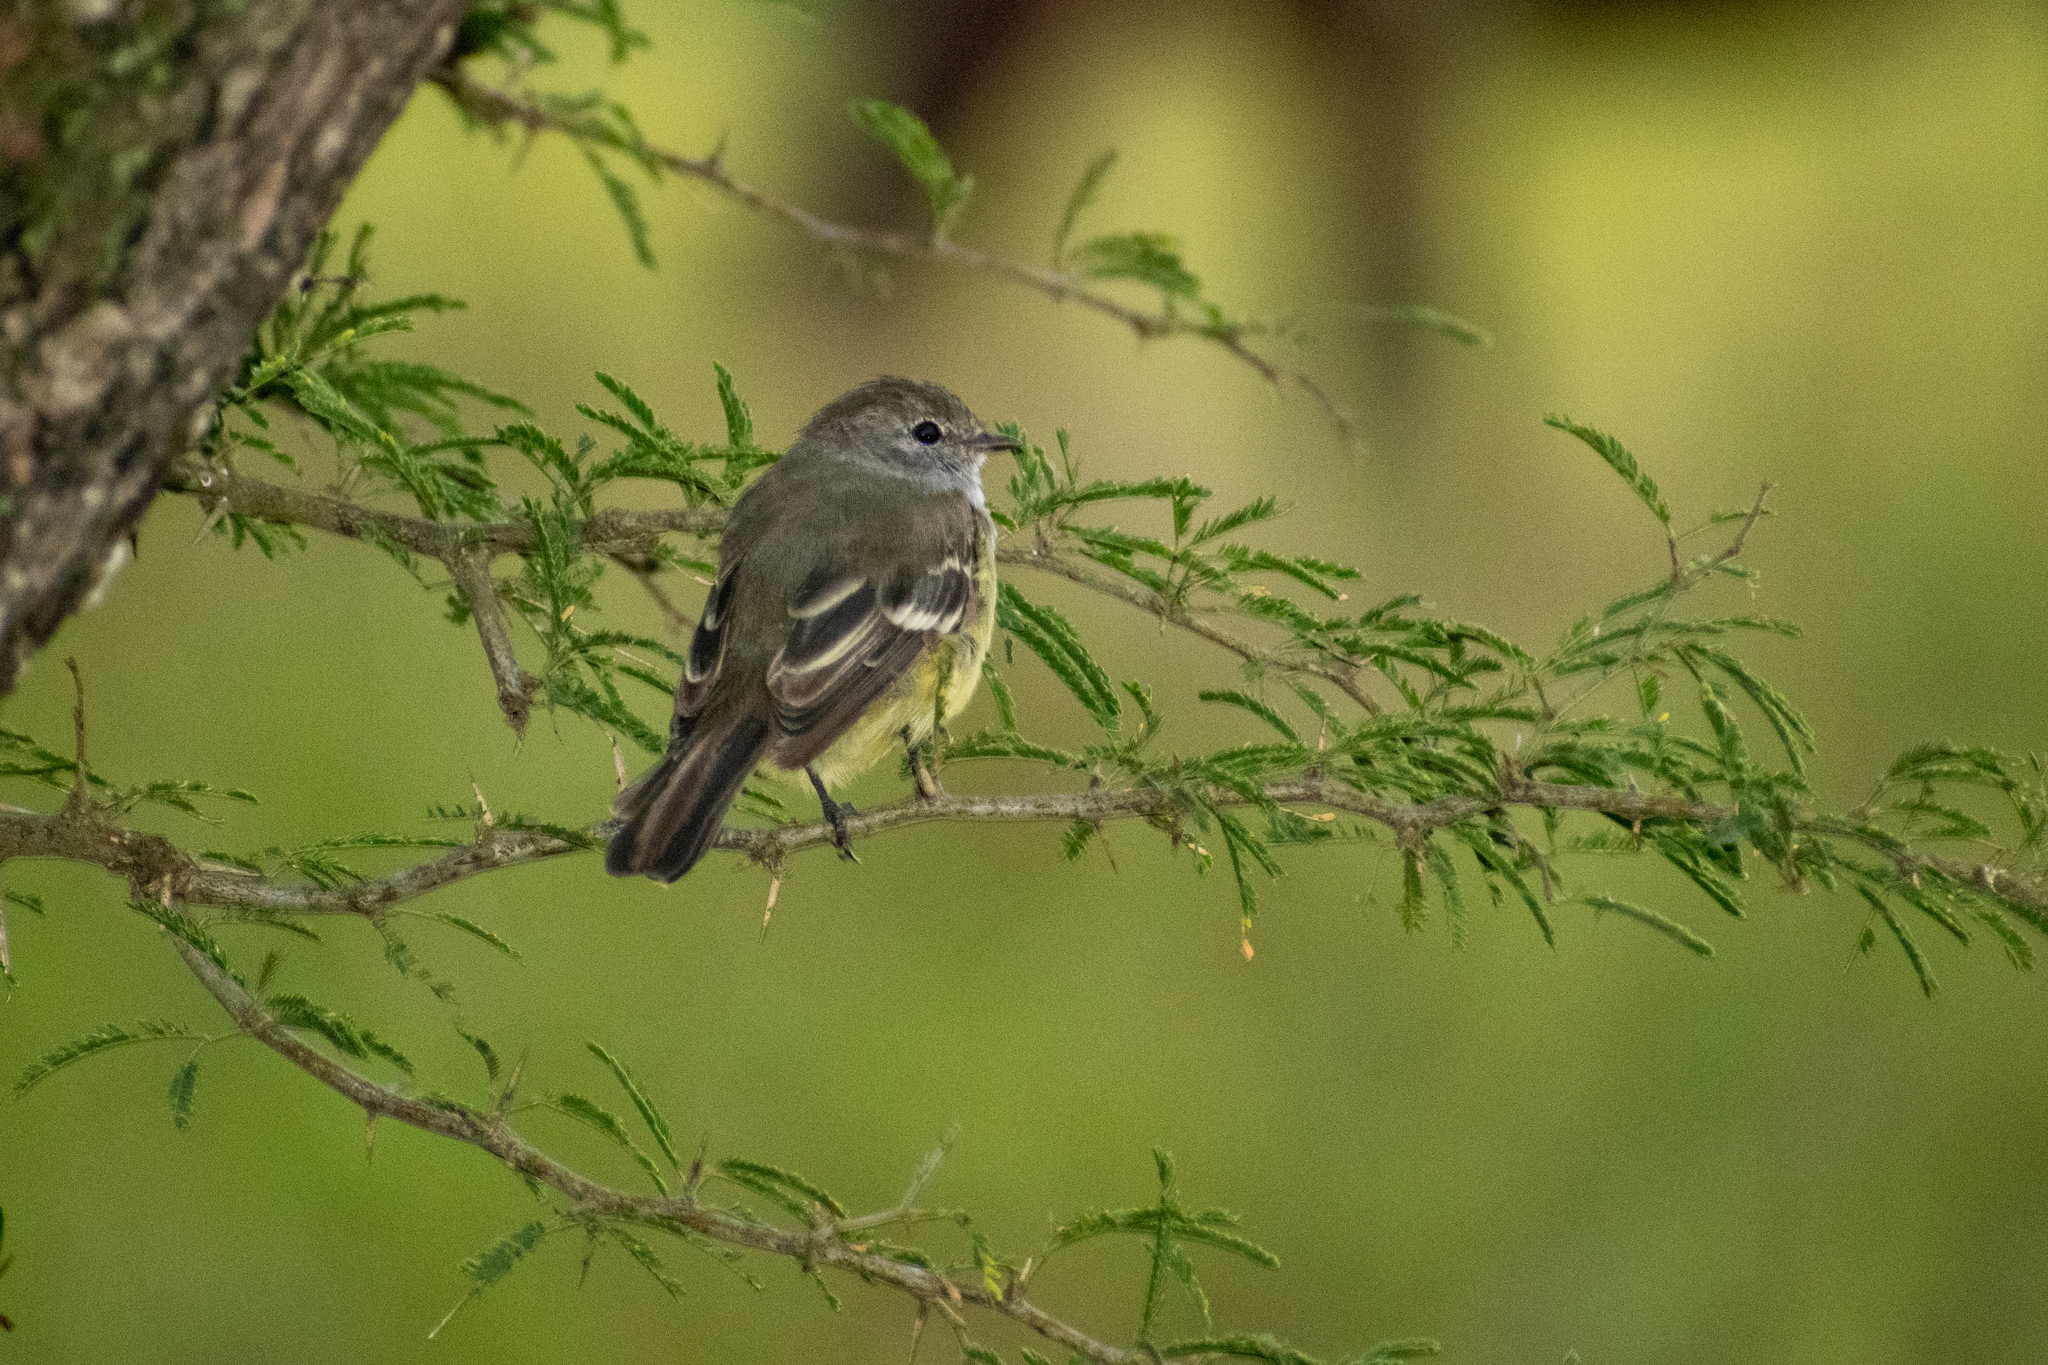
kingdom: Animalia
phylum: Chordata
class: Aves
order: Passeriformes
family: Tyrannidae
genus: Sublegatus
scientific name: Sublegatus modestus
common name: Southern scrub flycatcher
